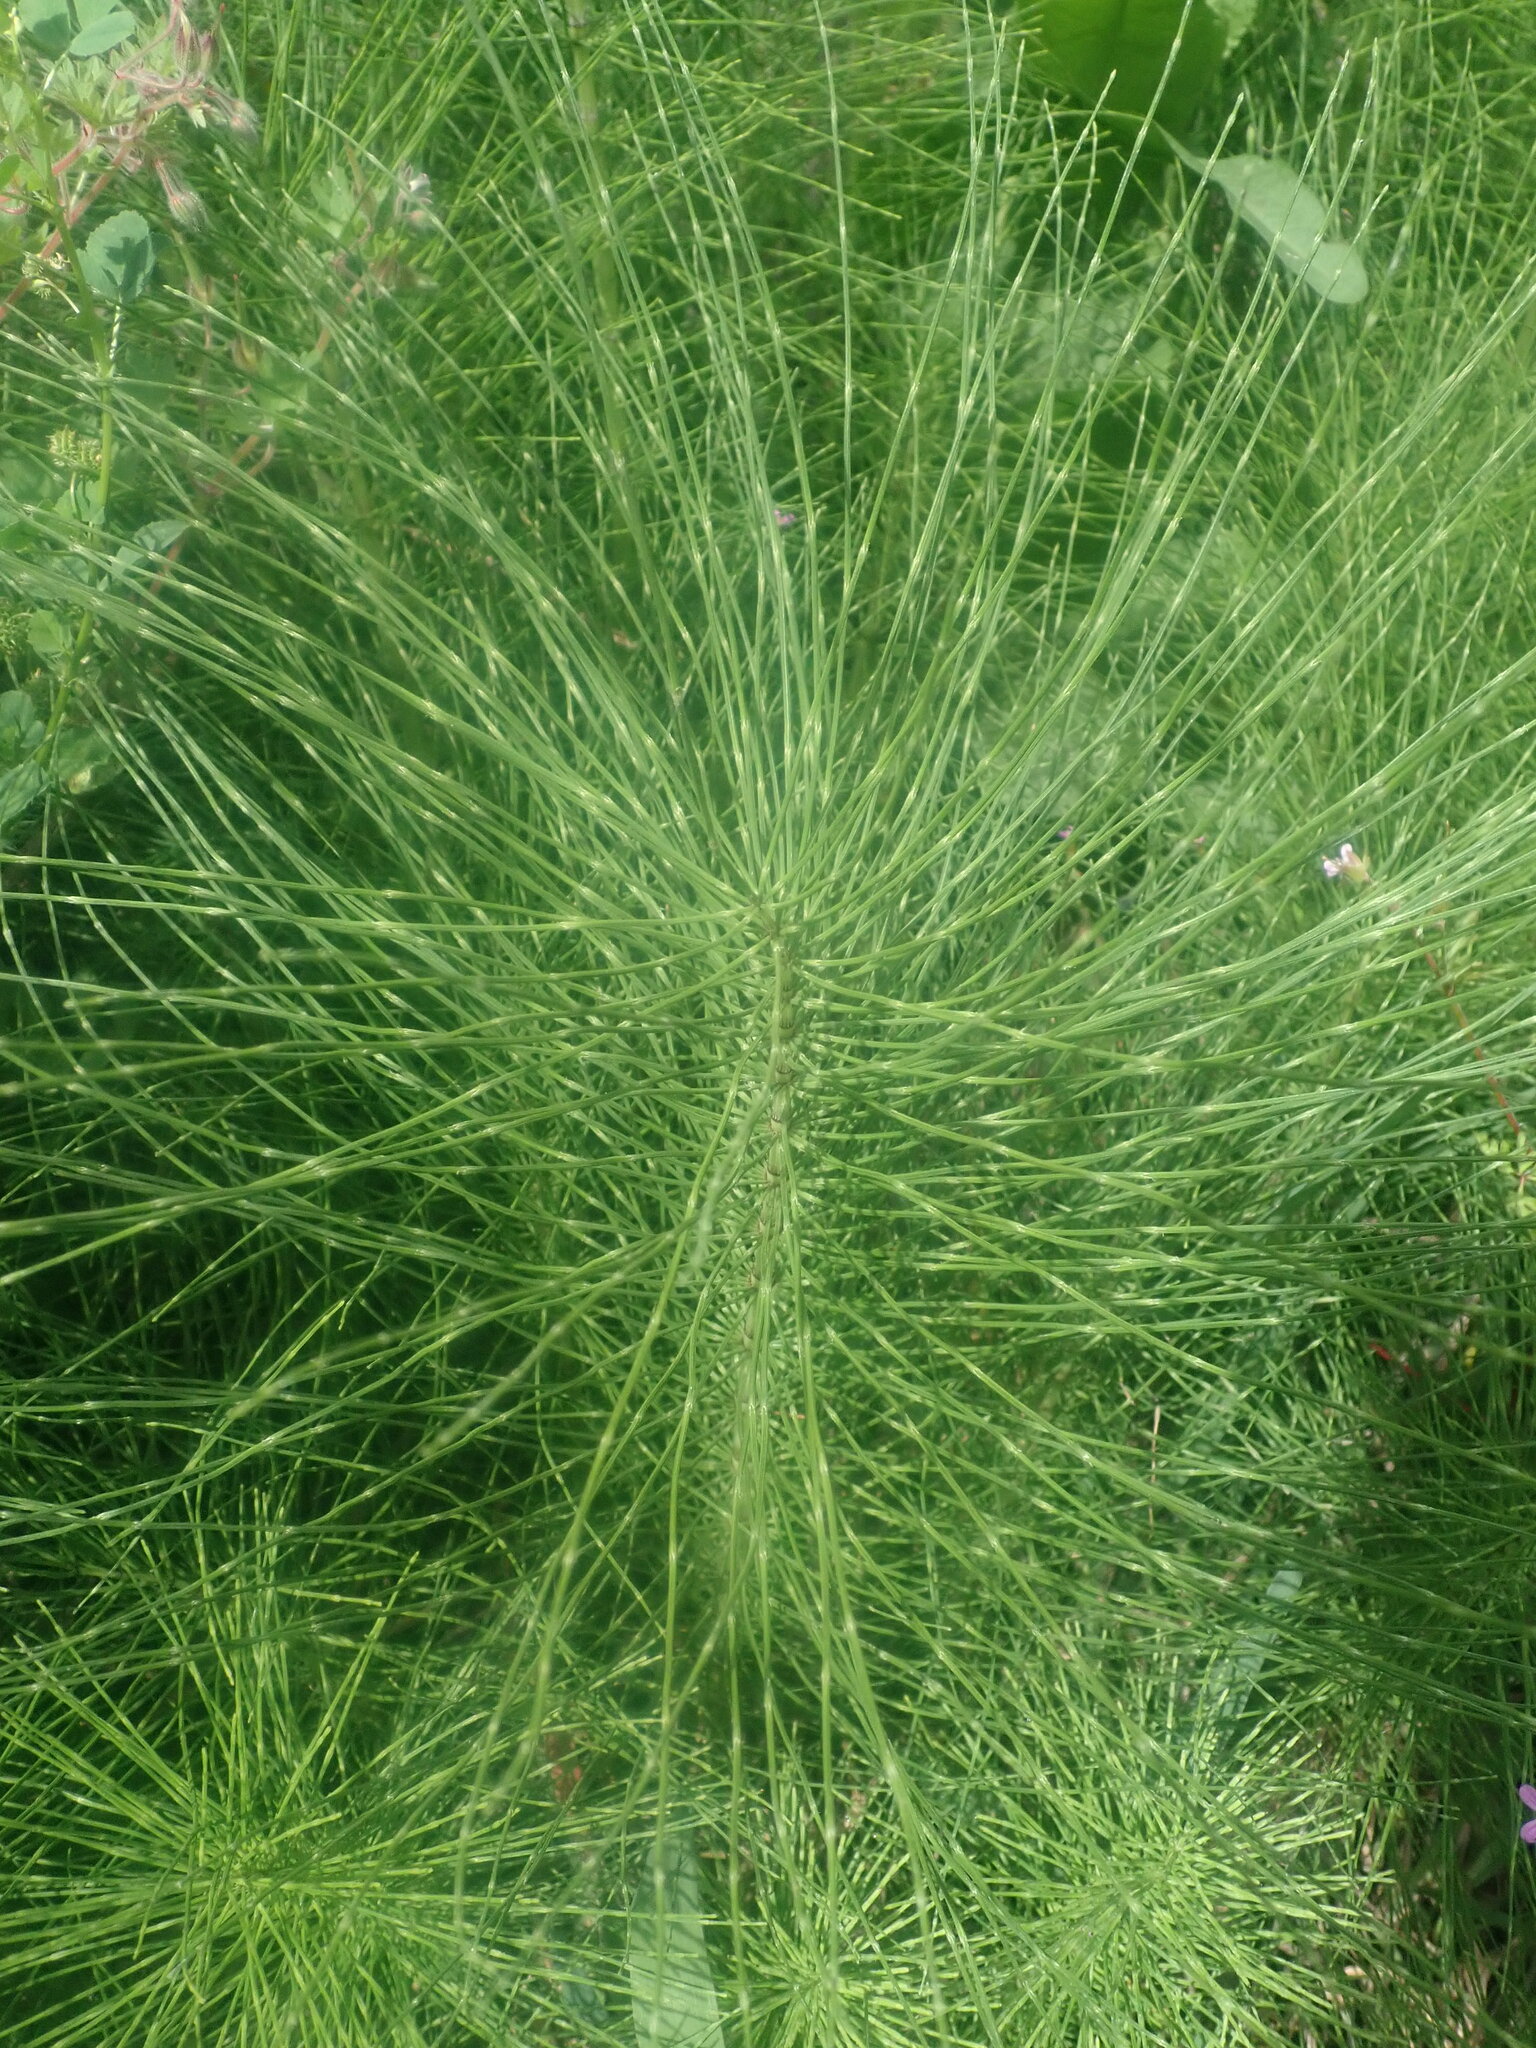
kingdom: Plantae
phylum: Tracheophyta
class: Polypodiopsida
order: Equisetales
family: Equisetaceae
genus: Equisetum
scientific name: Equisetum telmateia
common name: Great horsetail
